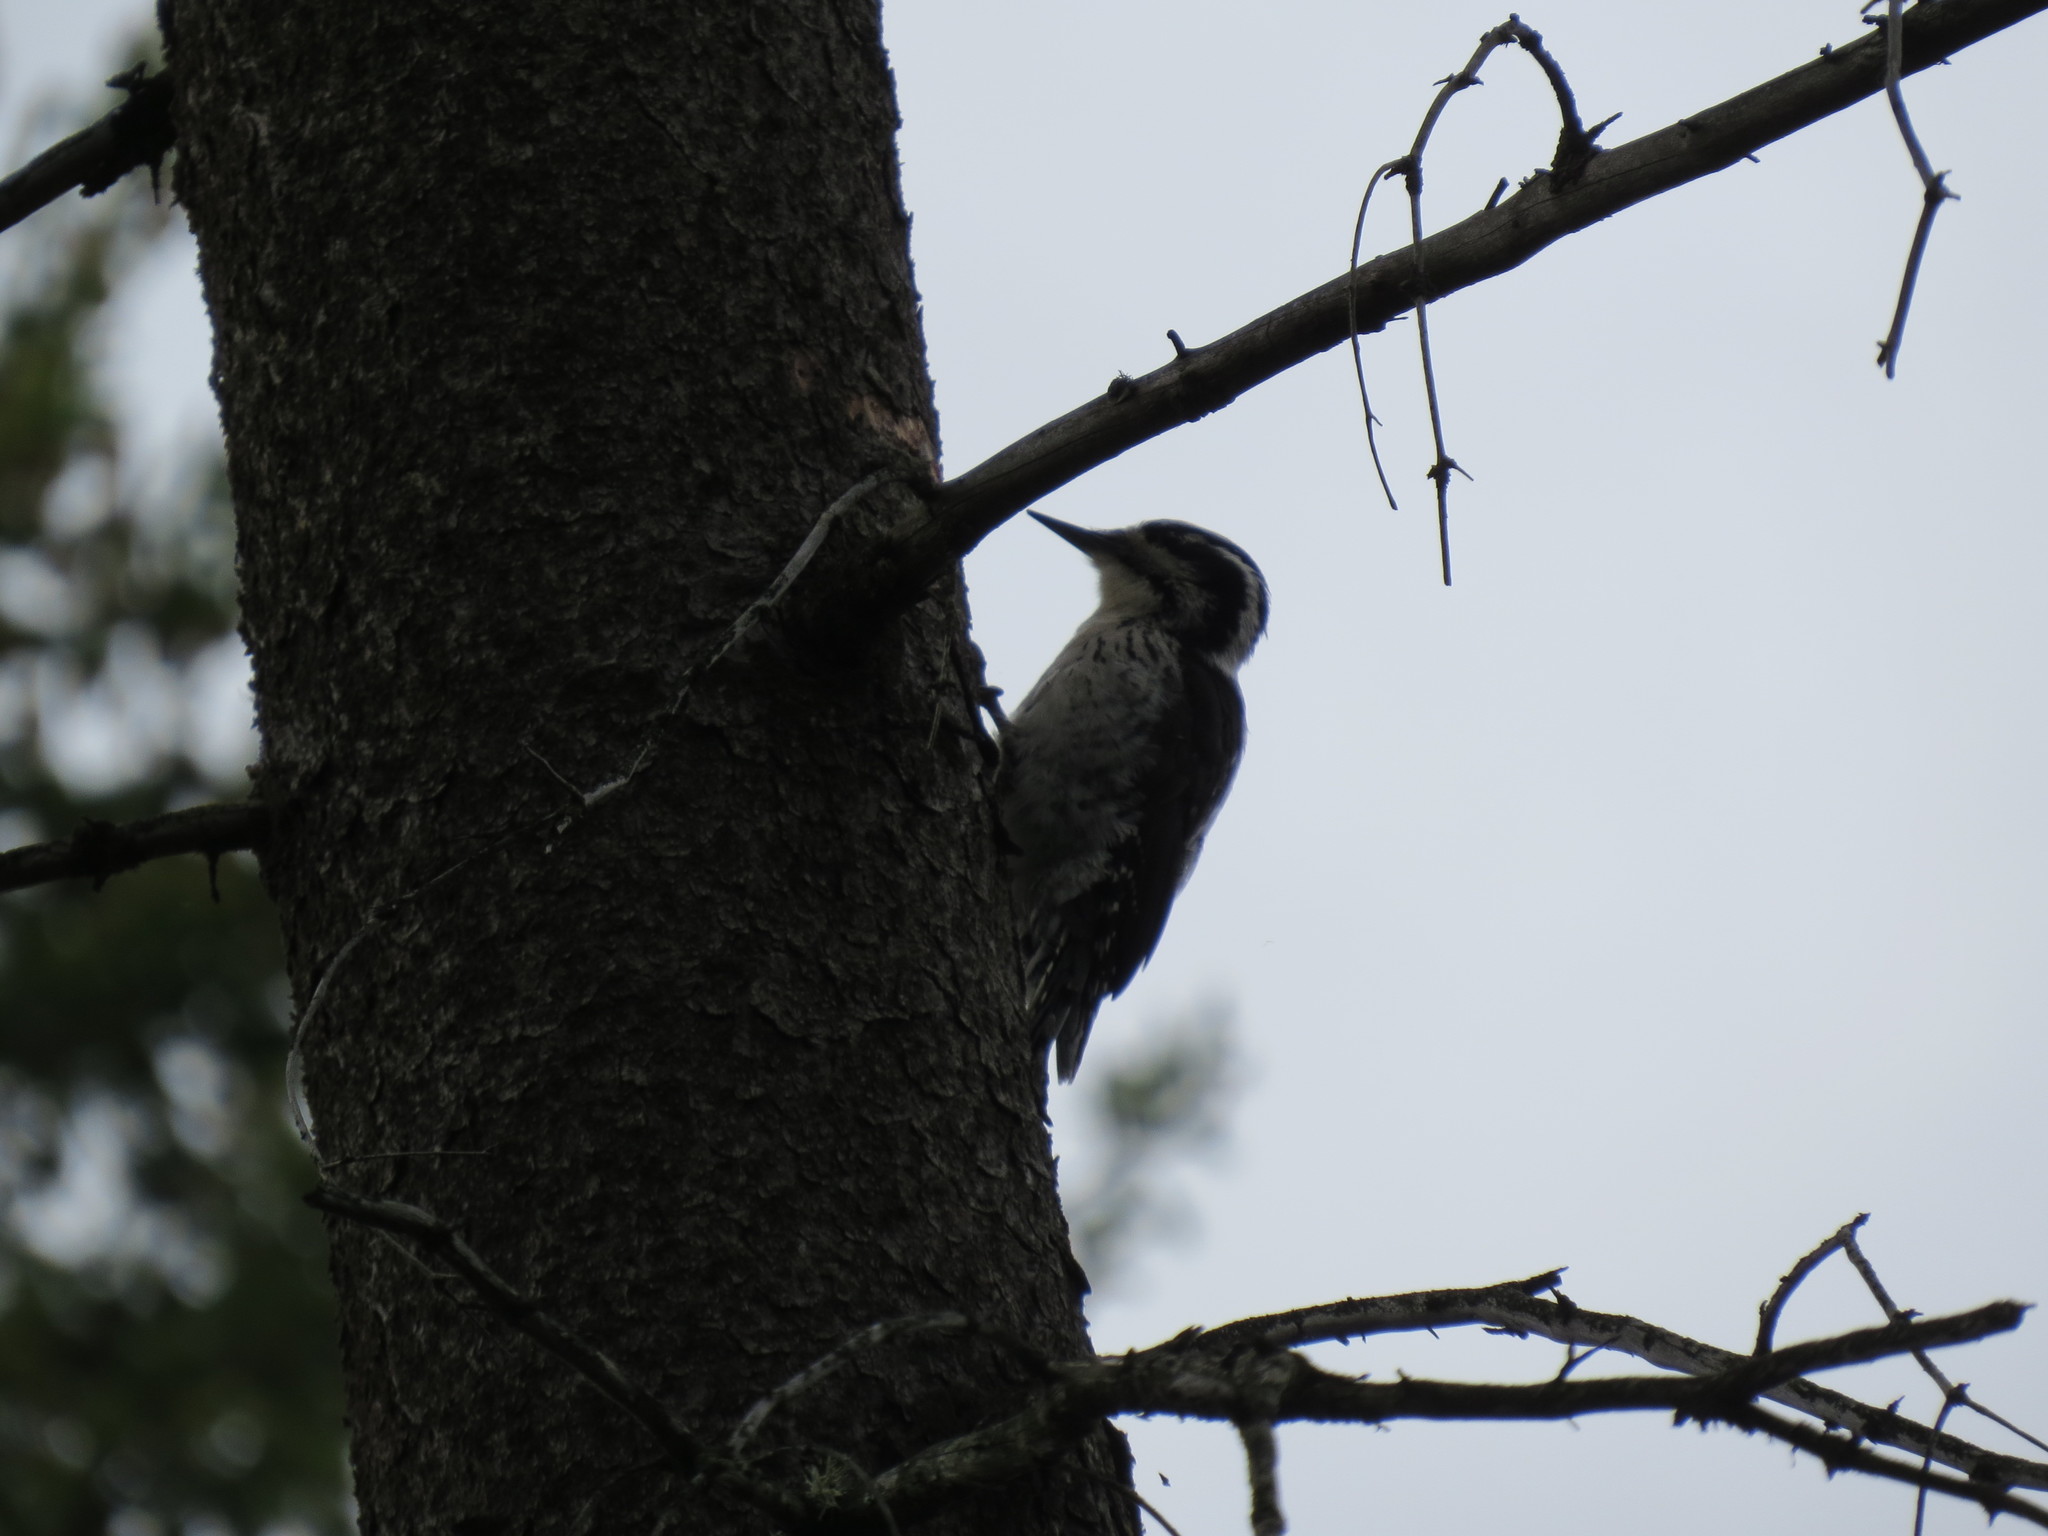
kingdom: Animalia
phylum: Chordata
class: Aves
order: Piciformes
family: Picidae
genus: Picoides
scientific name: Picoides tridactylus
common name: Eurasian three-toed woodpecker
